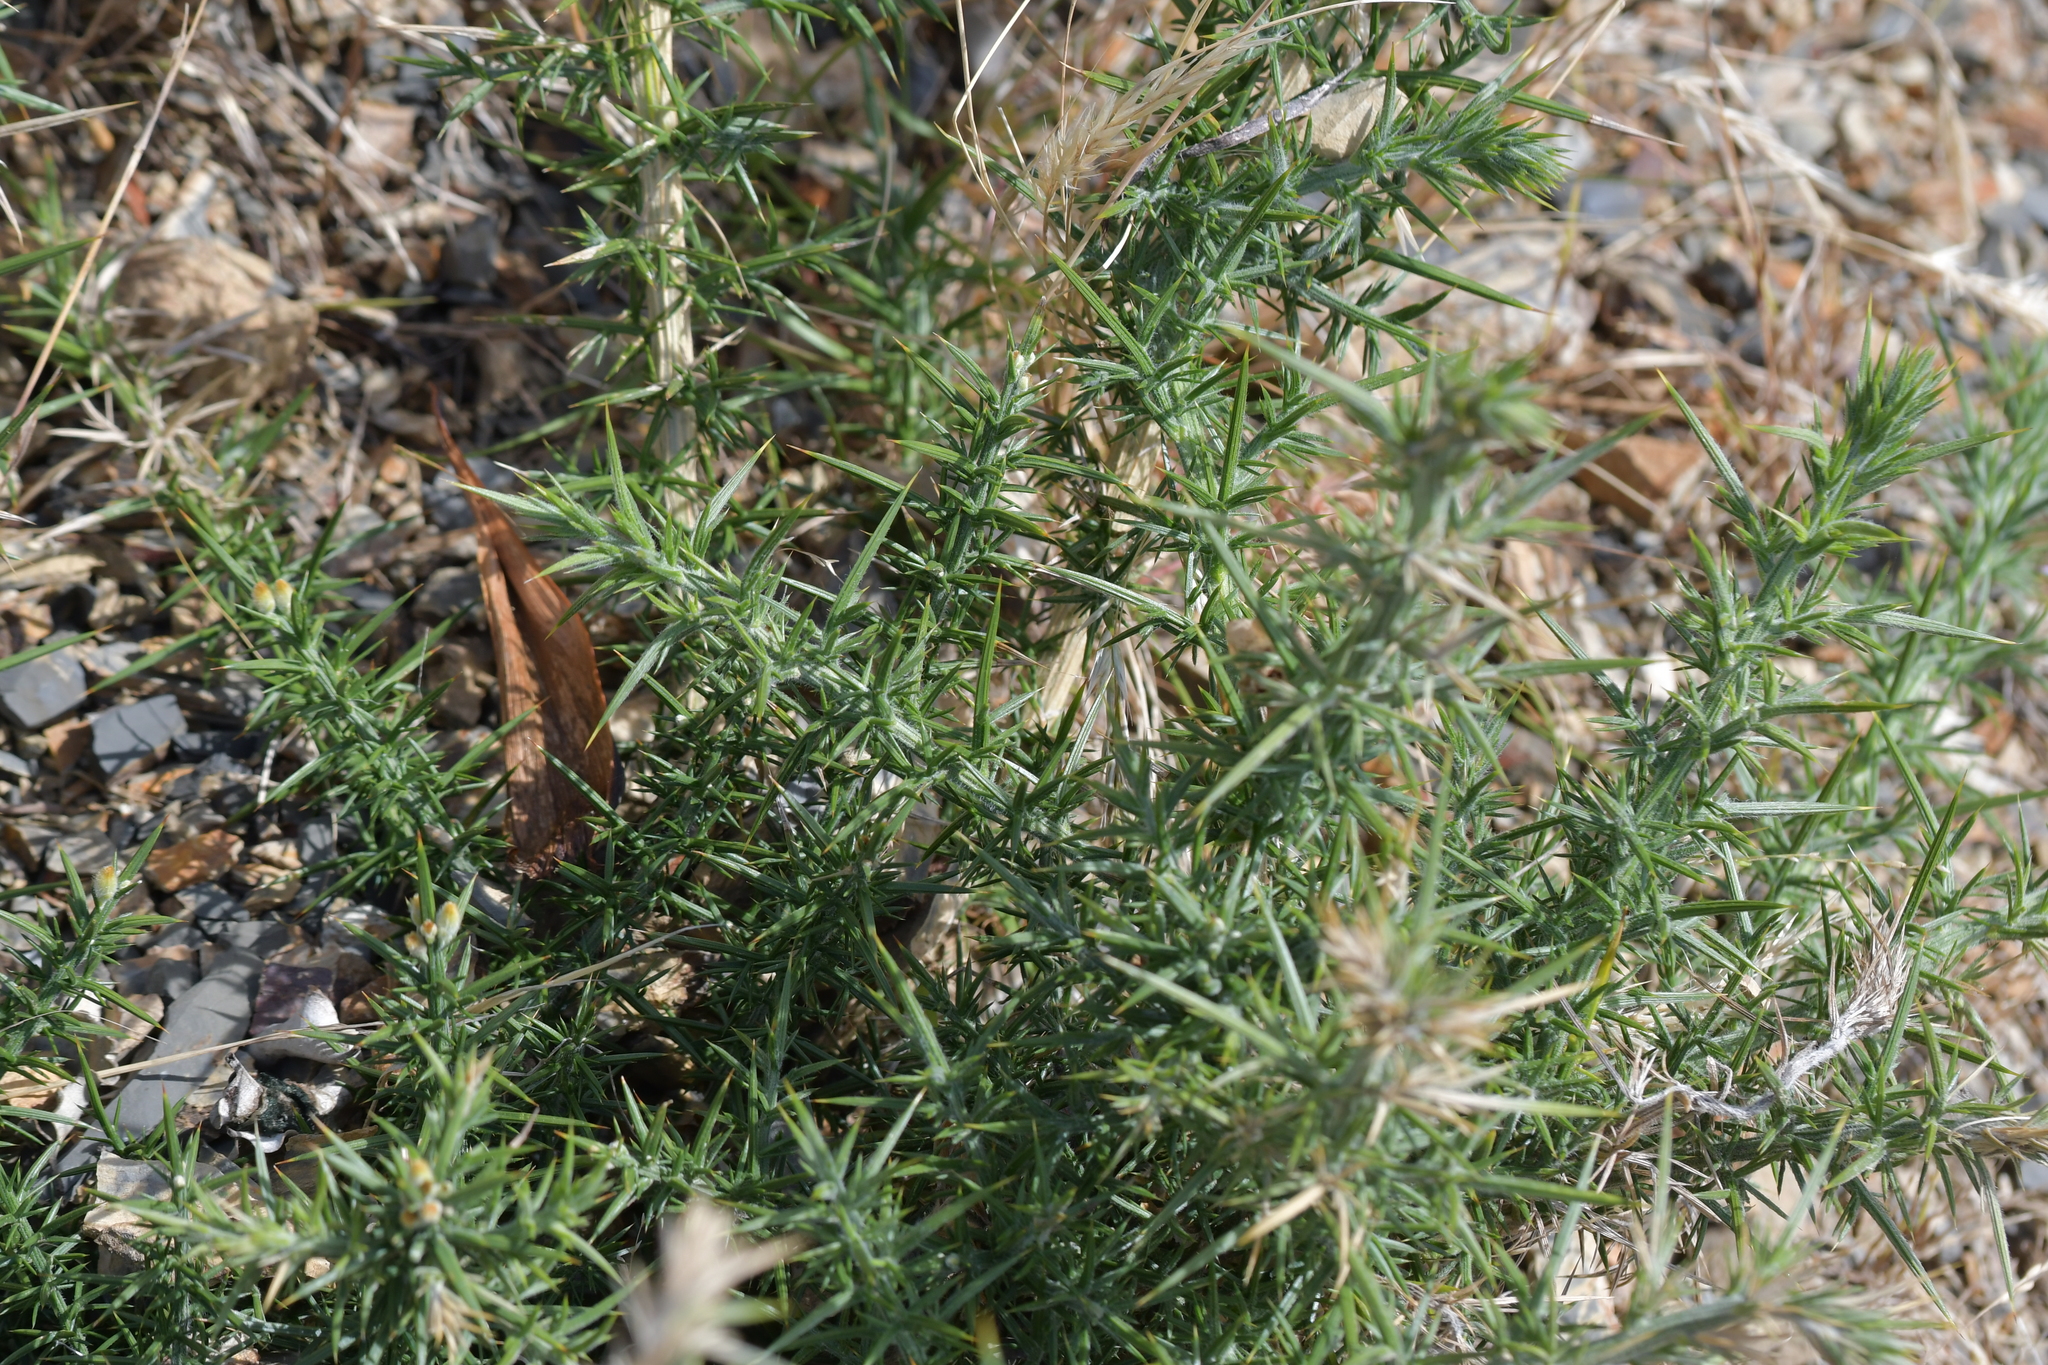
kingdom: Plantae
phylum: Tracheophyta
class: Magnoliopsida
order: Fabales
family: Fabaceae
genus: Ulex
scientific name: Ulex europaeus
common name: Common gorse
